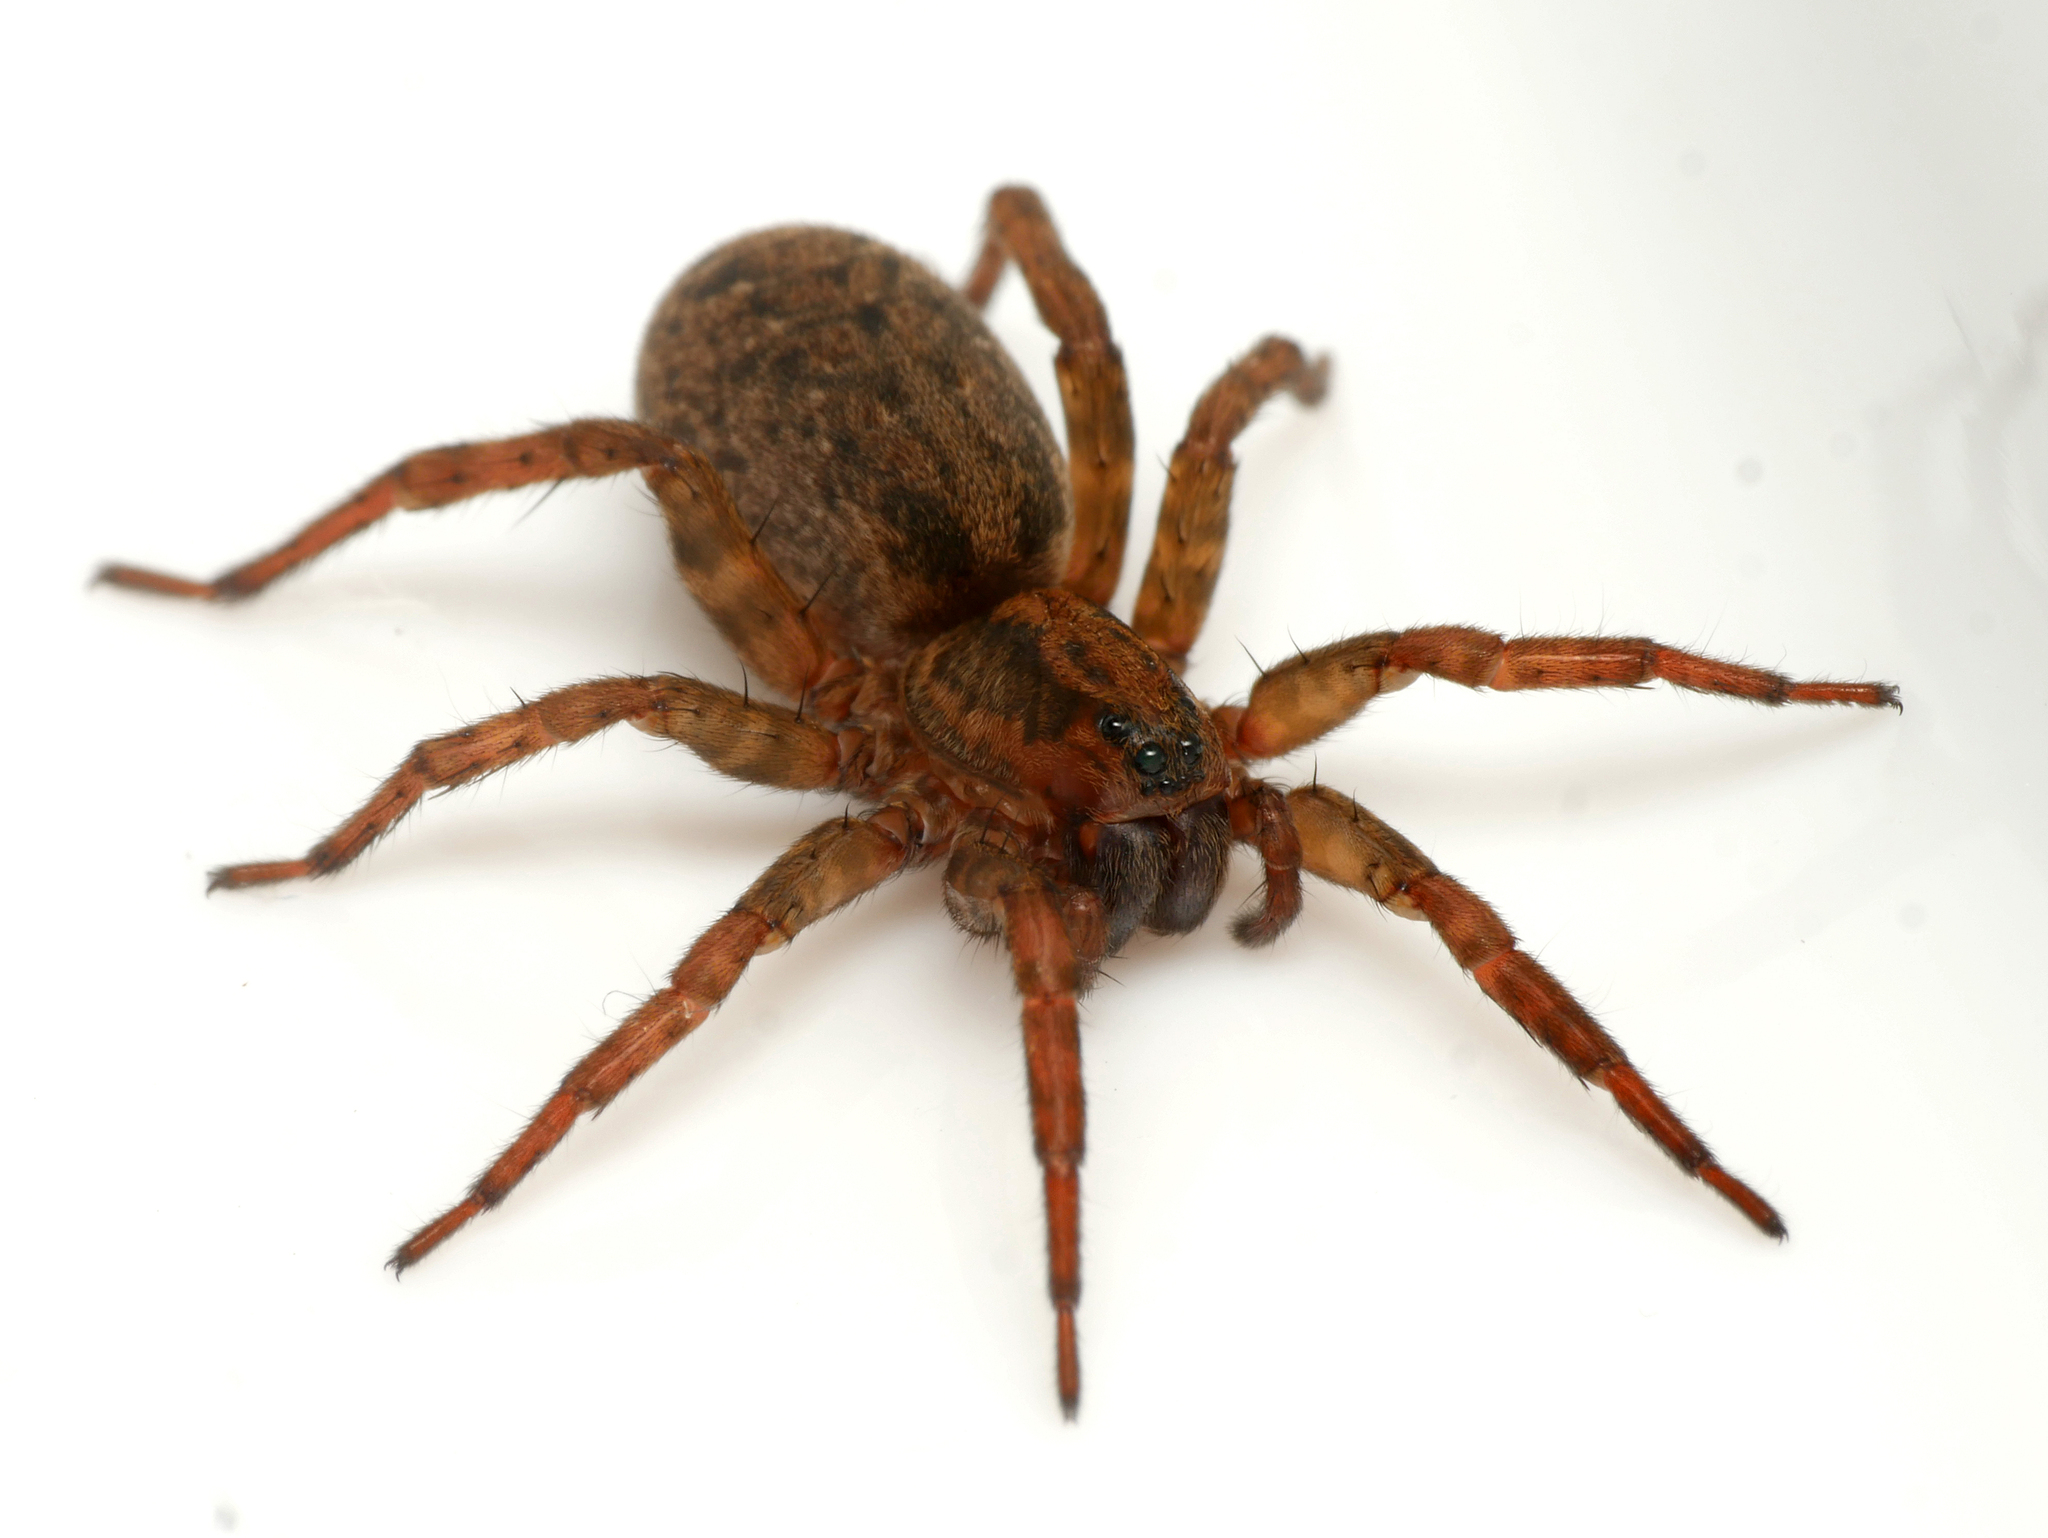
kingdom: Animalia
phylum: Arthropoda
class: Arachnida
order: Araneae
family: Lycosidae
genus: Trochosa
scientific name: Trochosa terricola
